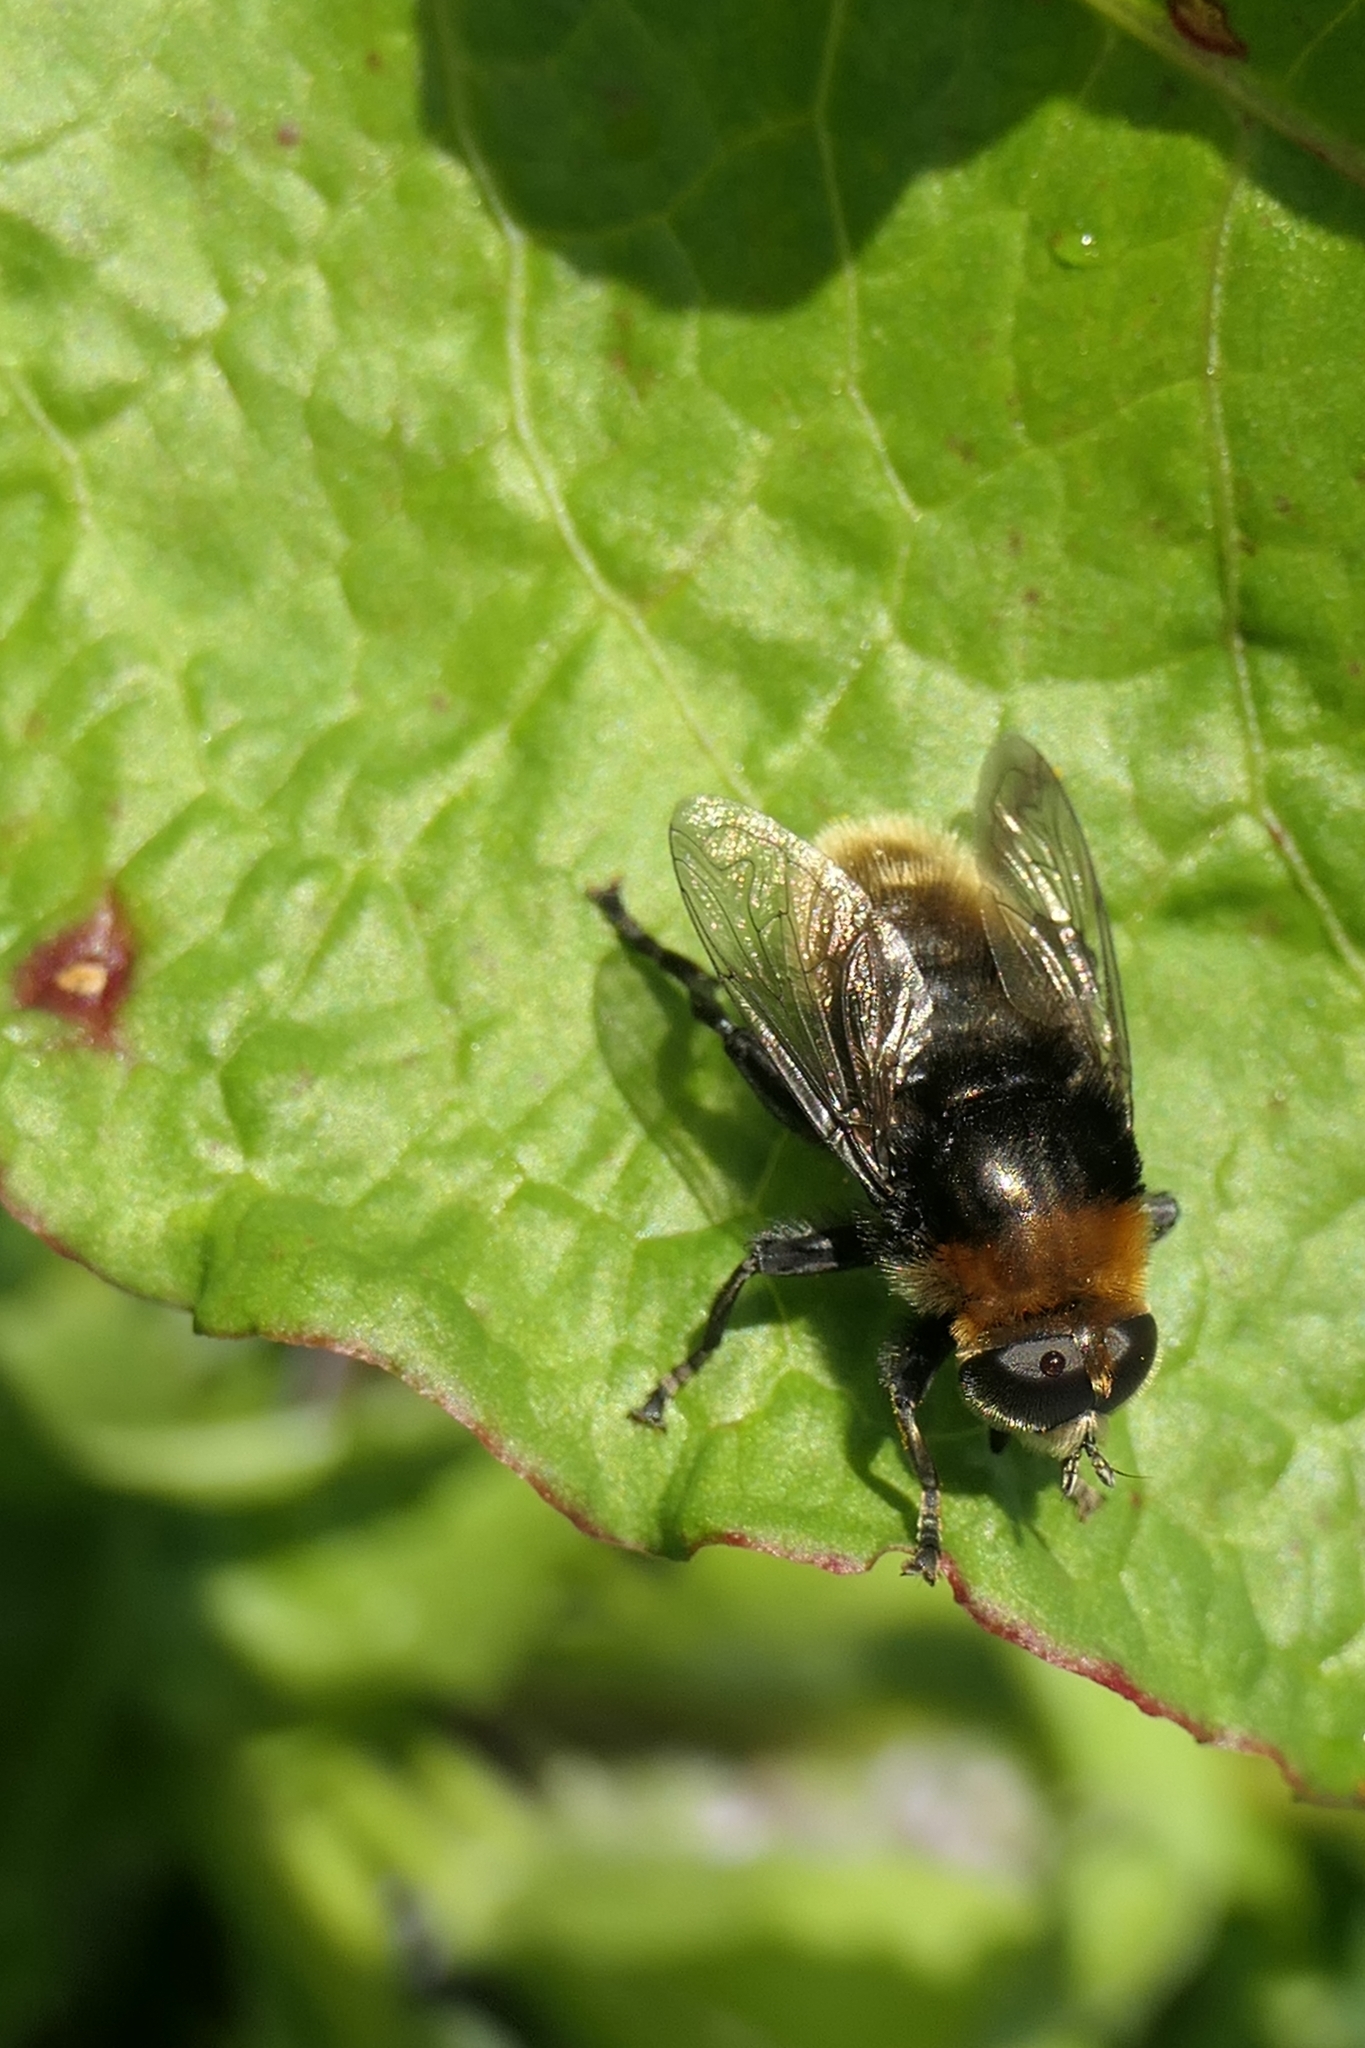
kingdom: Animalia
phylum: Arthropoda
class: Insecta
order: Diptera
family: Syrphidae
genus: Merodon
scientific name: Merodon equestris
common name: Greater bulb-fly
